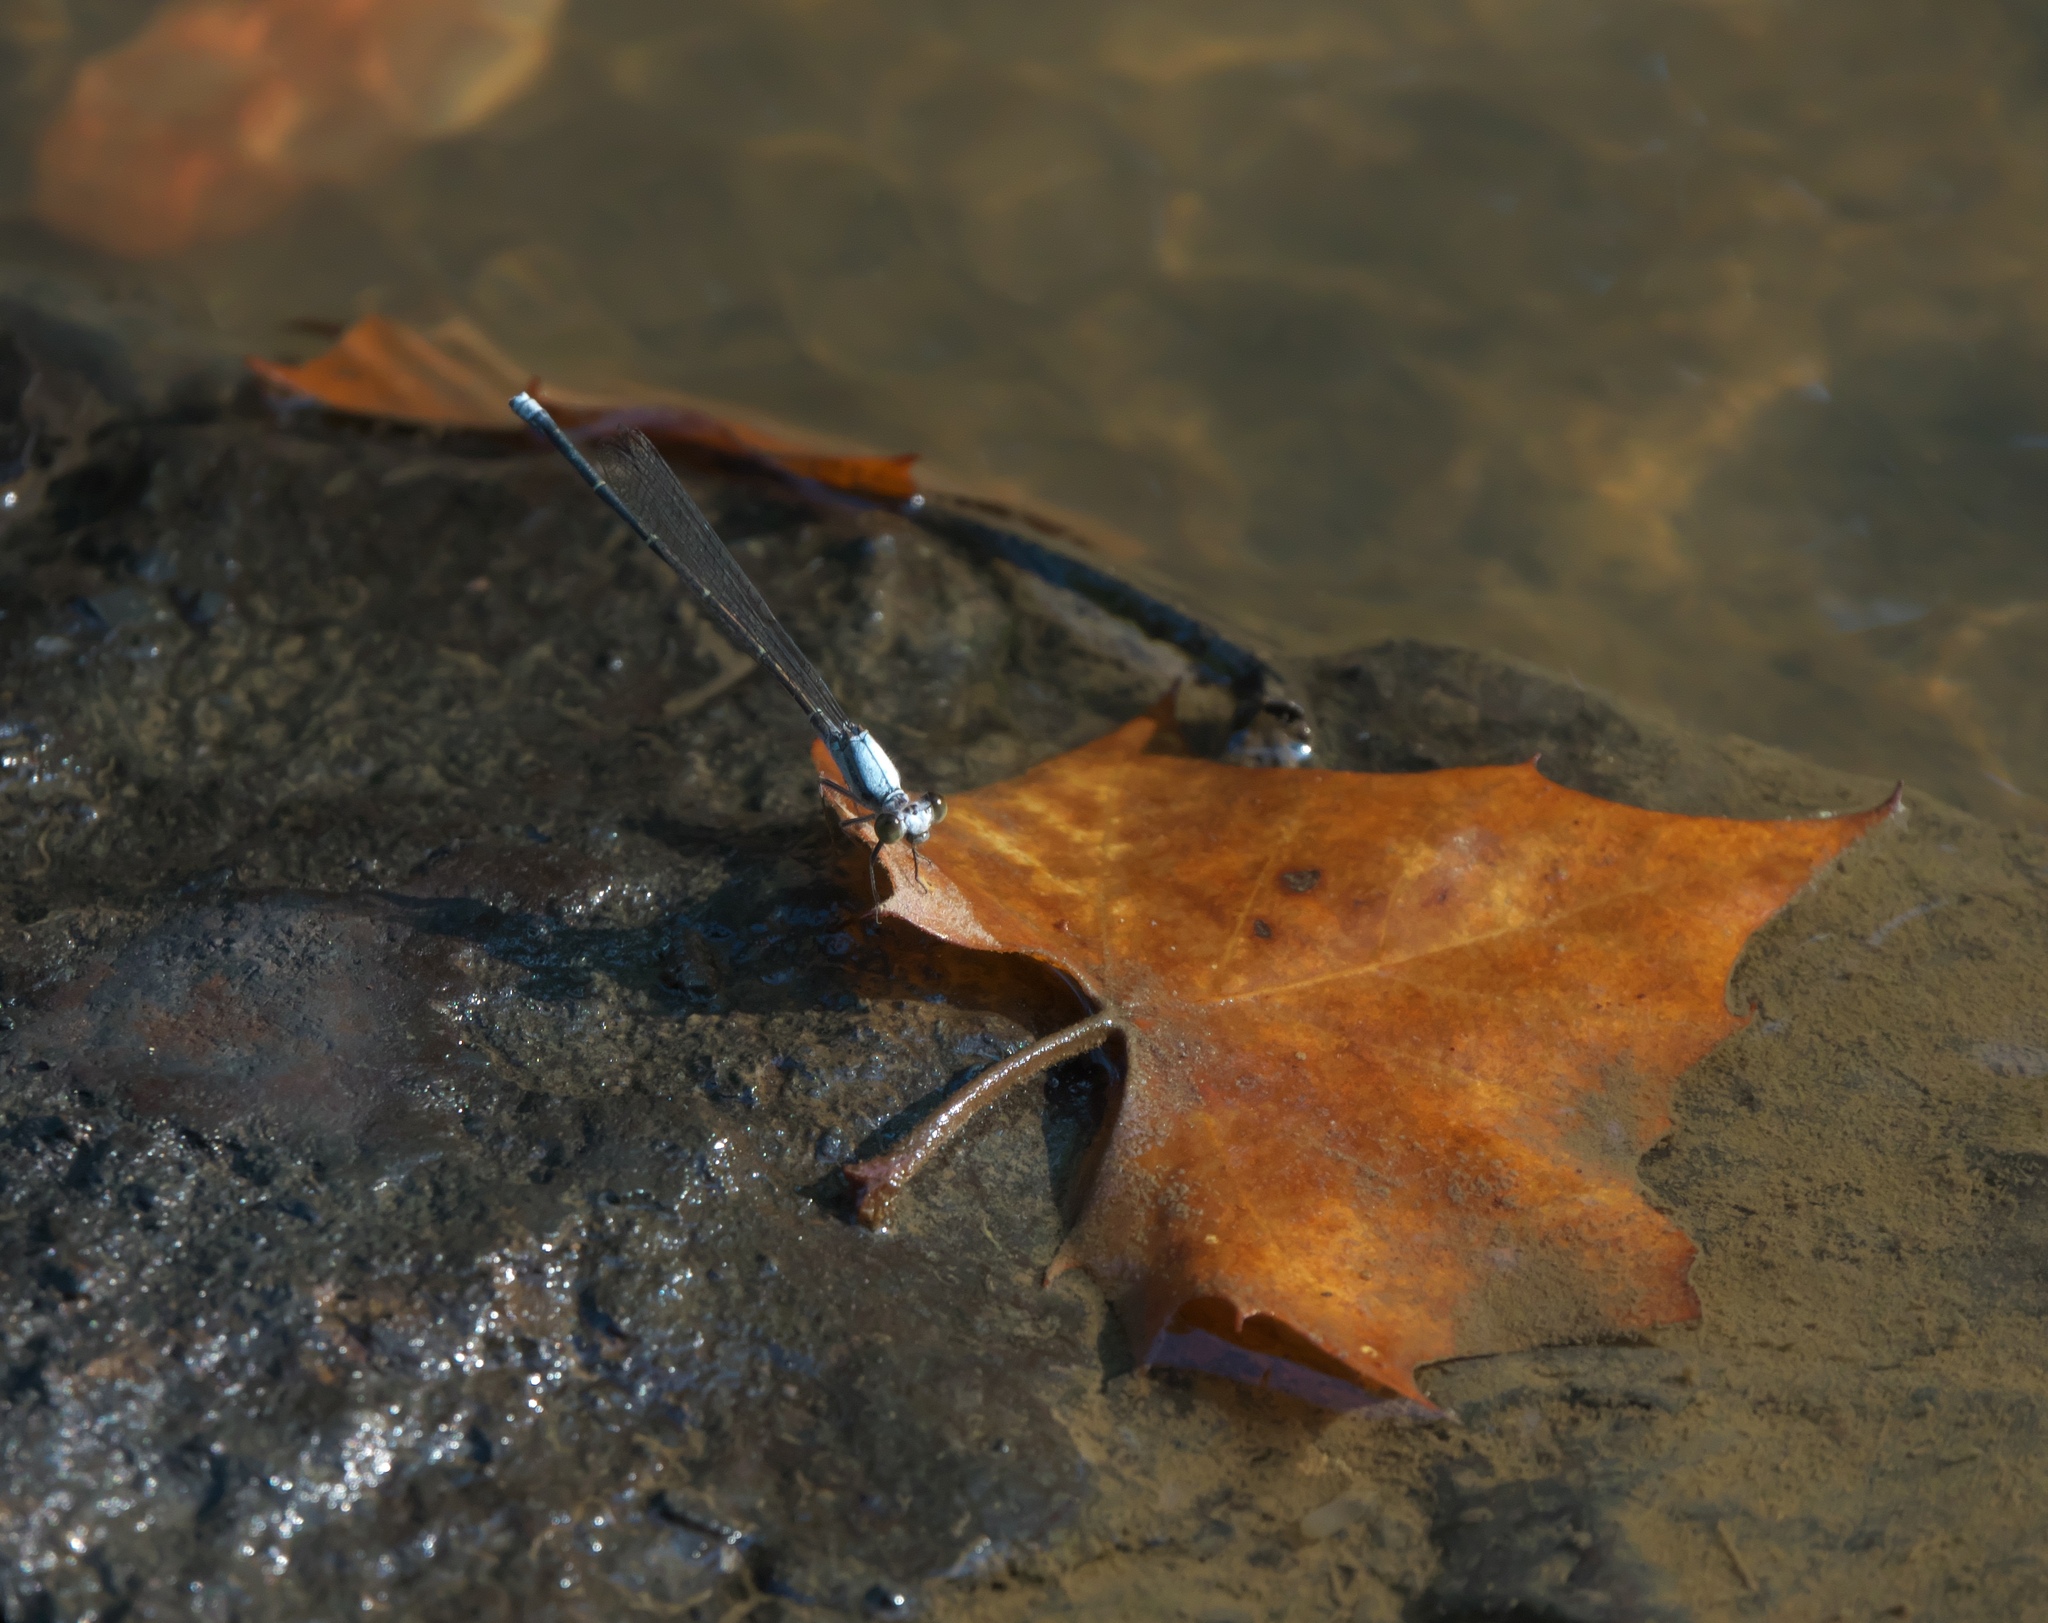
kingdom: Animalia
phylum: Arthropoda
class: Insecta
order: Odonata
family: Coenagrionidae
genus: Argia
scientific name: Argia moesta
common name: Powdered dancer
